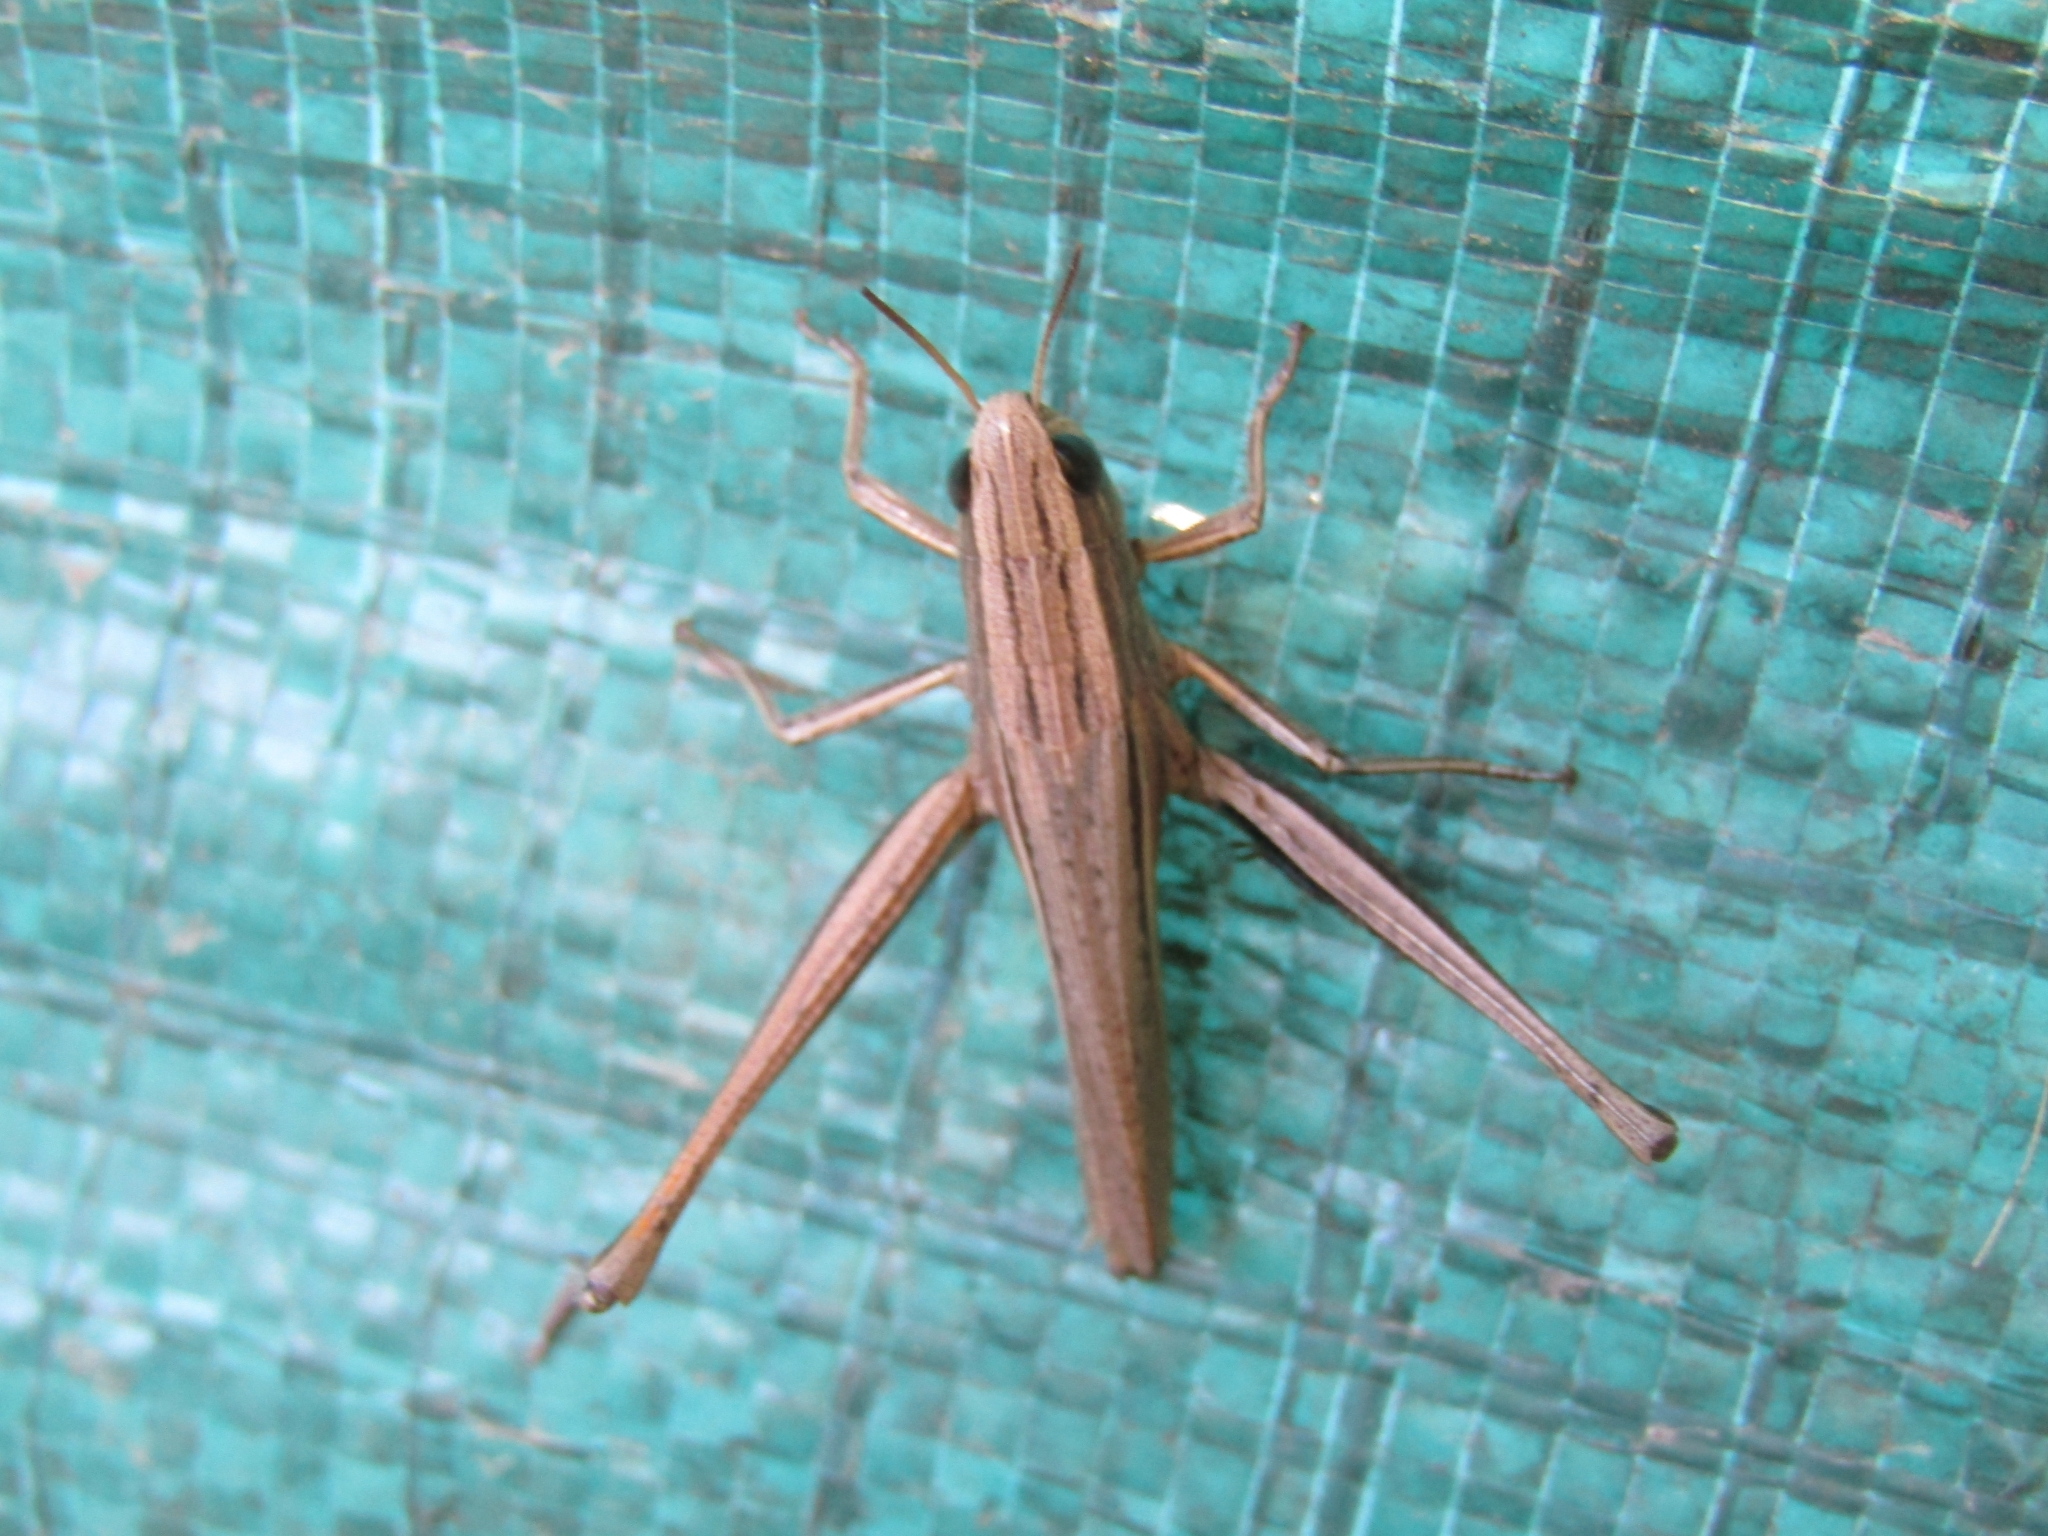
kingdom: Animalia
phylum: Arthropoda
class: Insecta
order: Orthoptera
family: Acrididae
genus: Amblytropidia
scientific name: Amblytropidia australis
